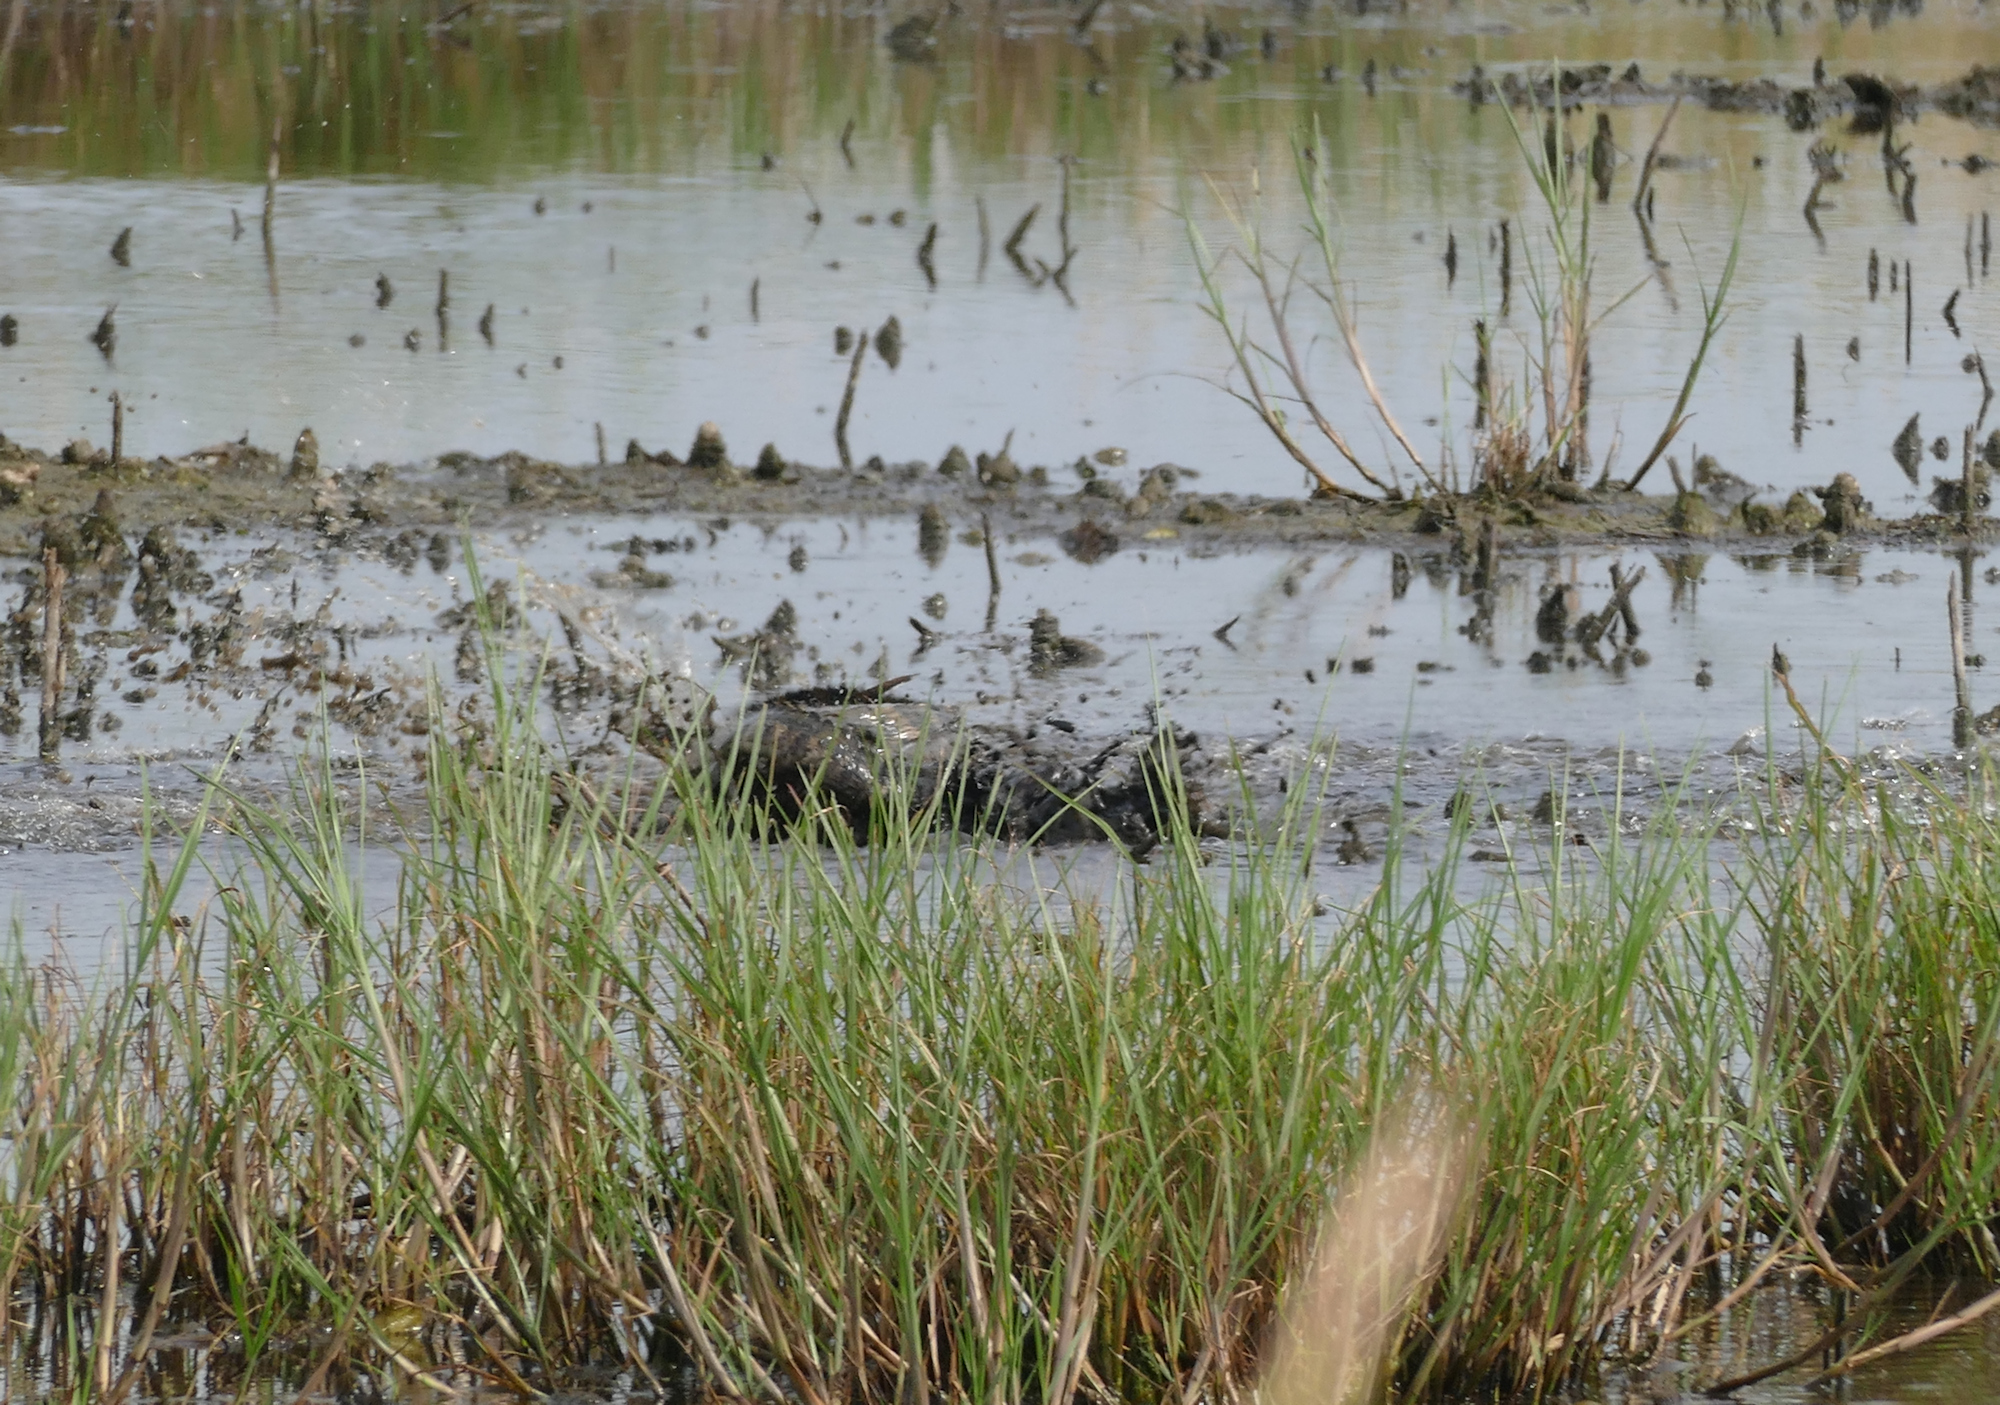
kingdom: Animalia
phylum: Chordata
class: Crocodylia
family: Alligatoridae
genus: Alligator
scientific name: Alligator mississippiensis
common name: American alligator
